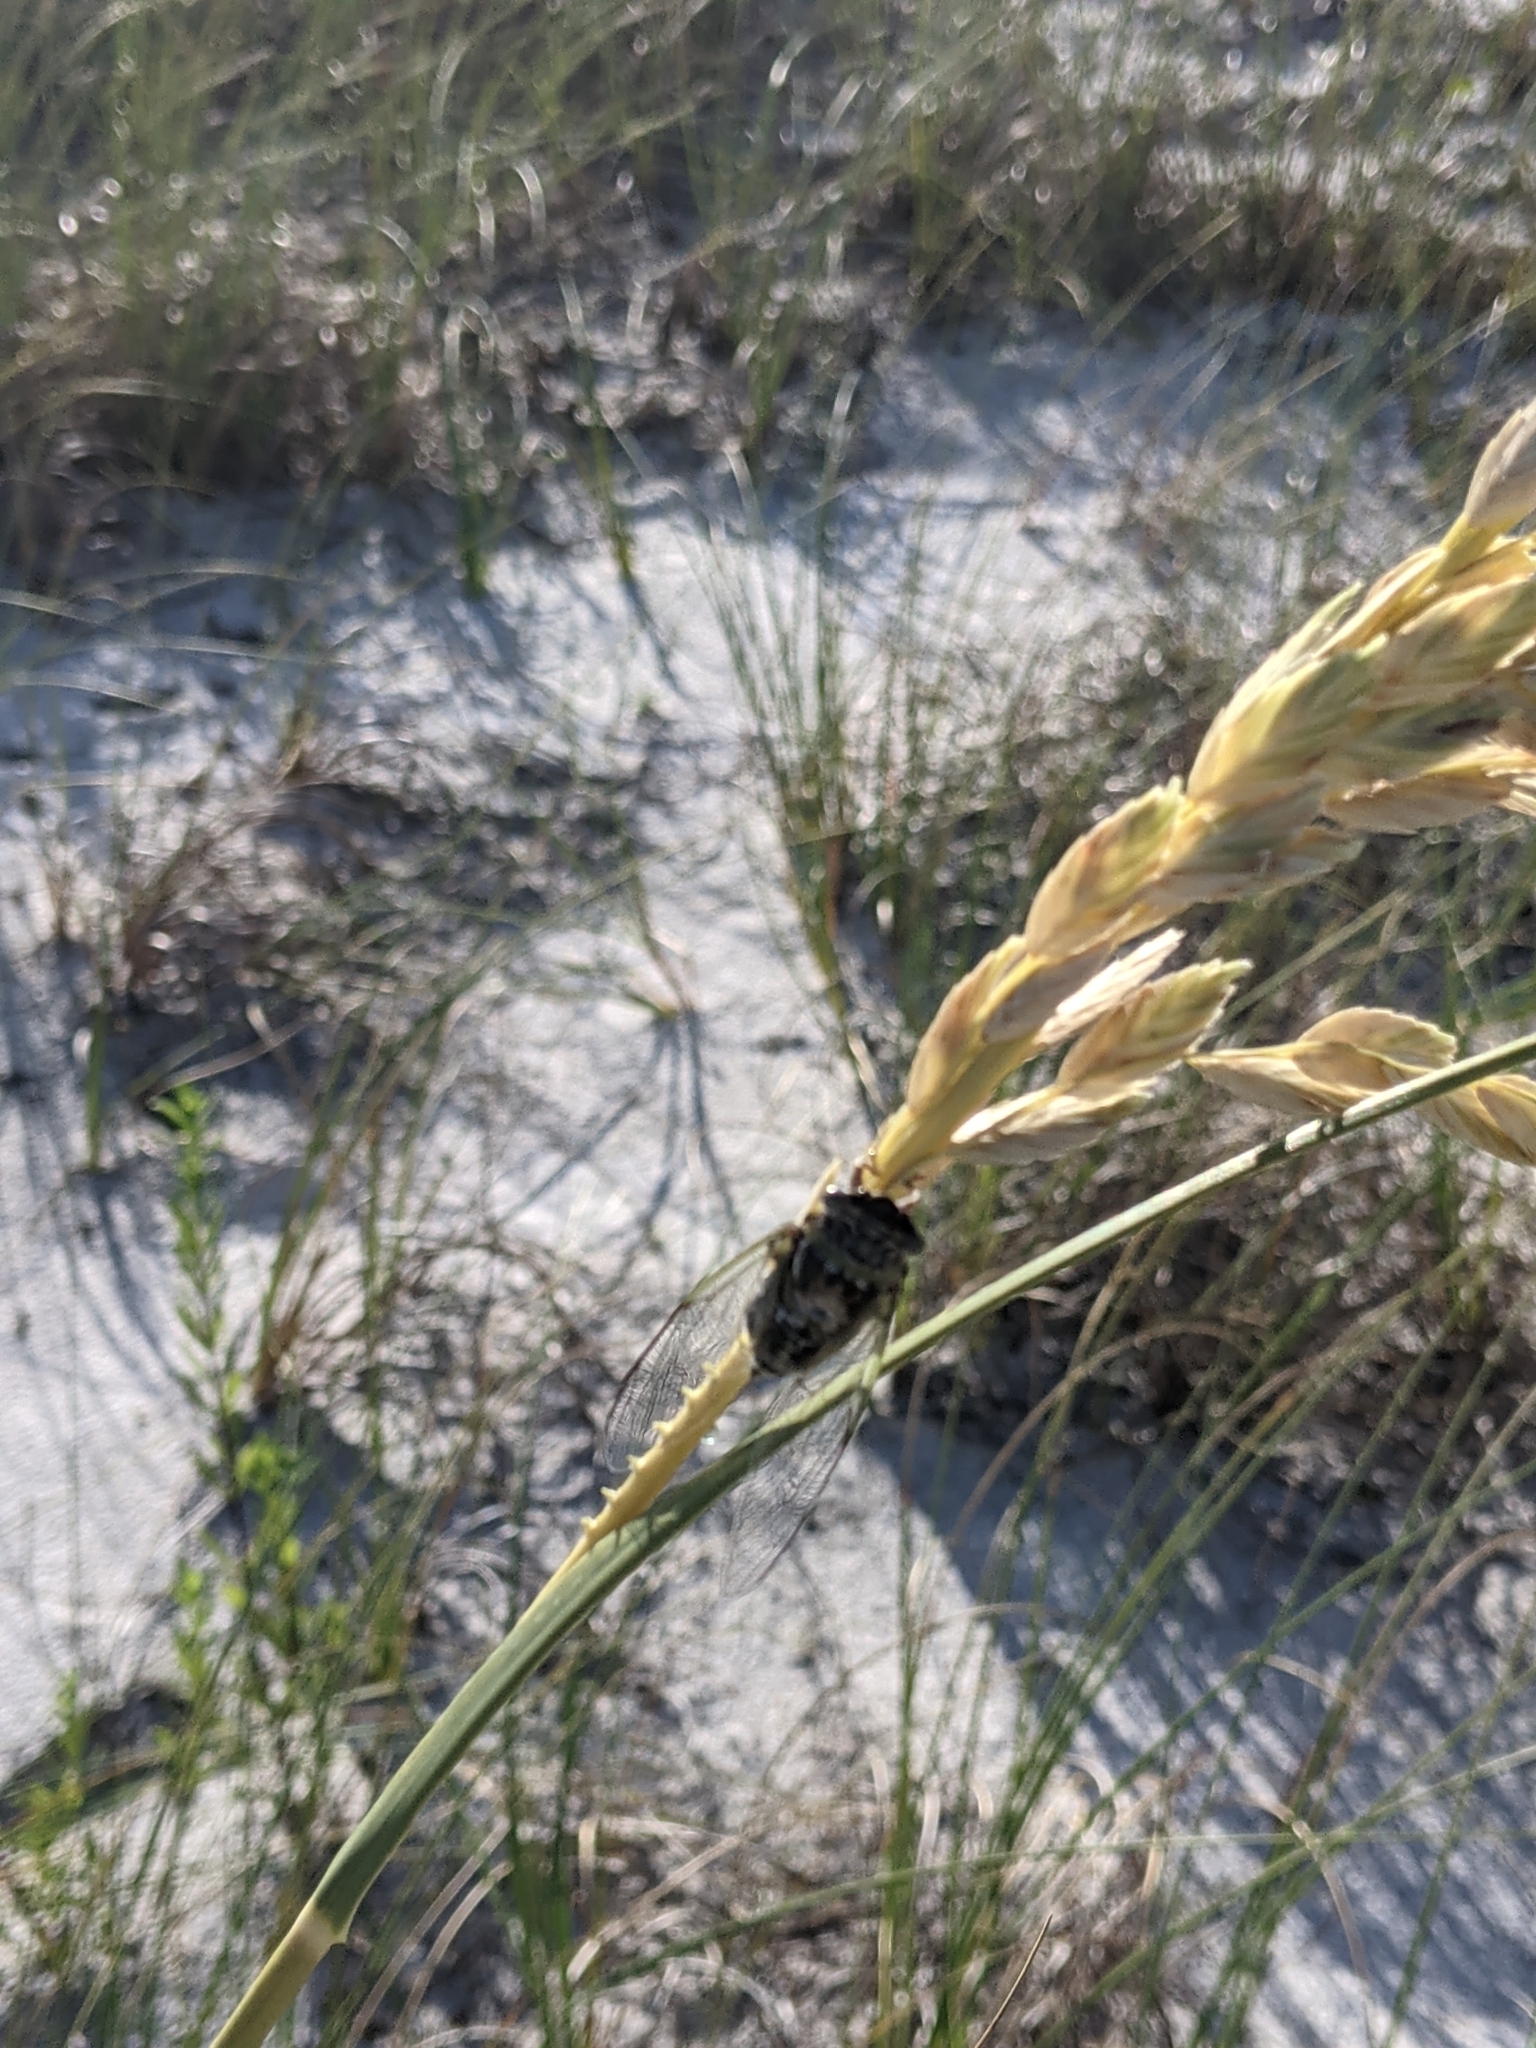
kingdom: Animalia
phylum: Arthropoda
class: Insecta
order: Hemiptera
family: Cicadidae
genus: Diceroprocta
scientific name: Diceroprocta viridifascia
